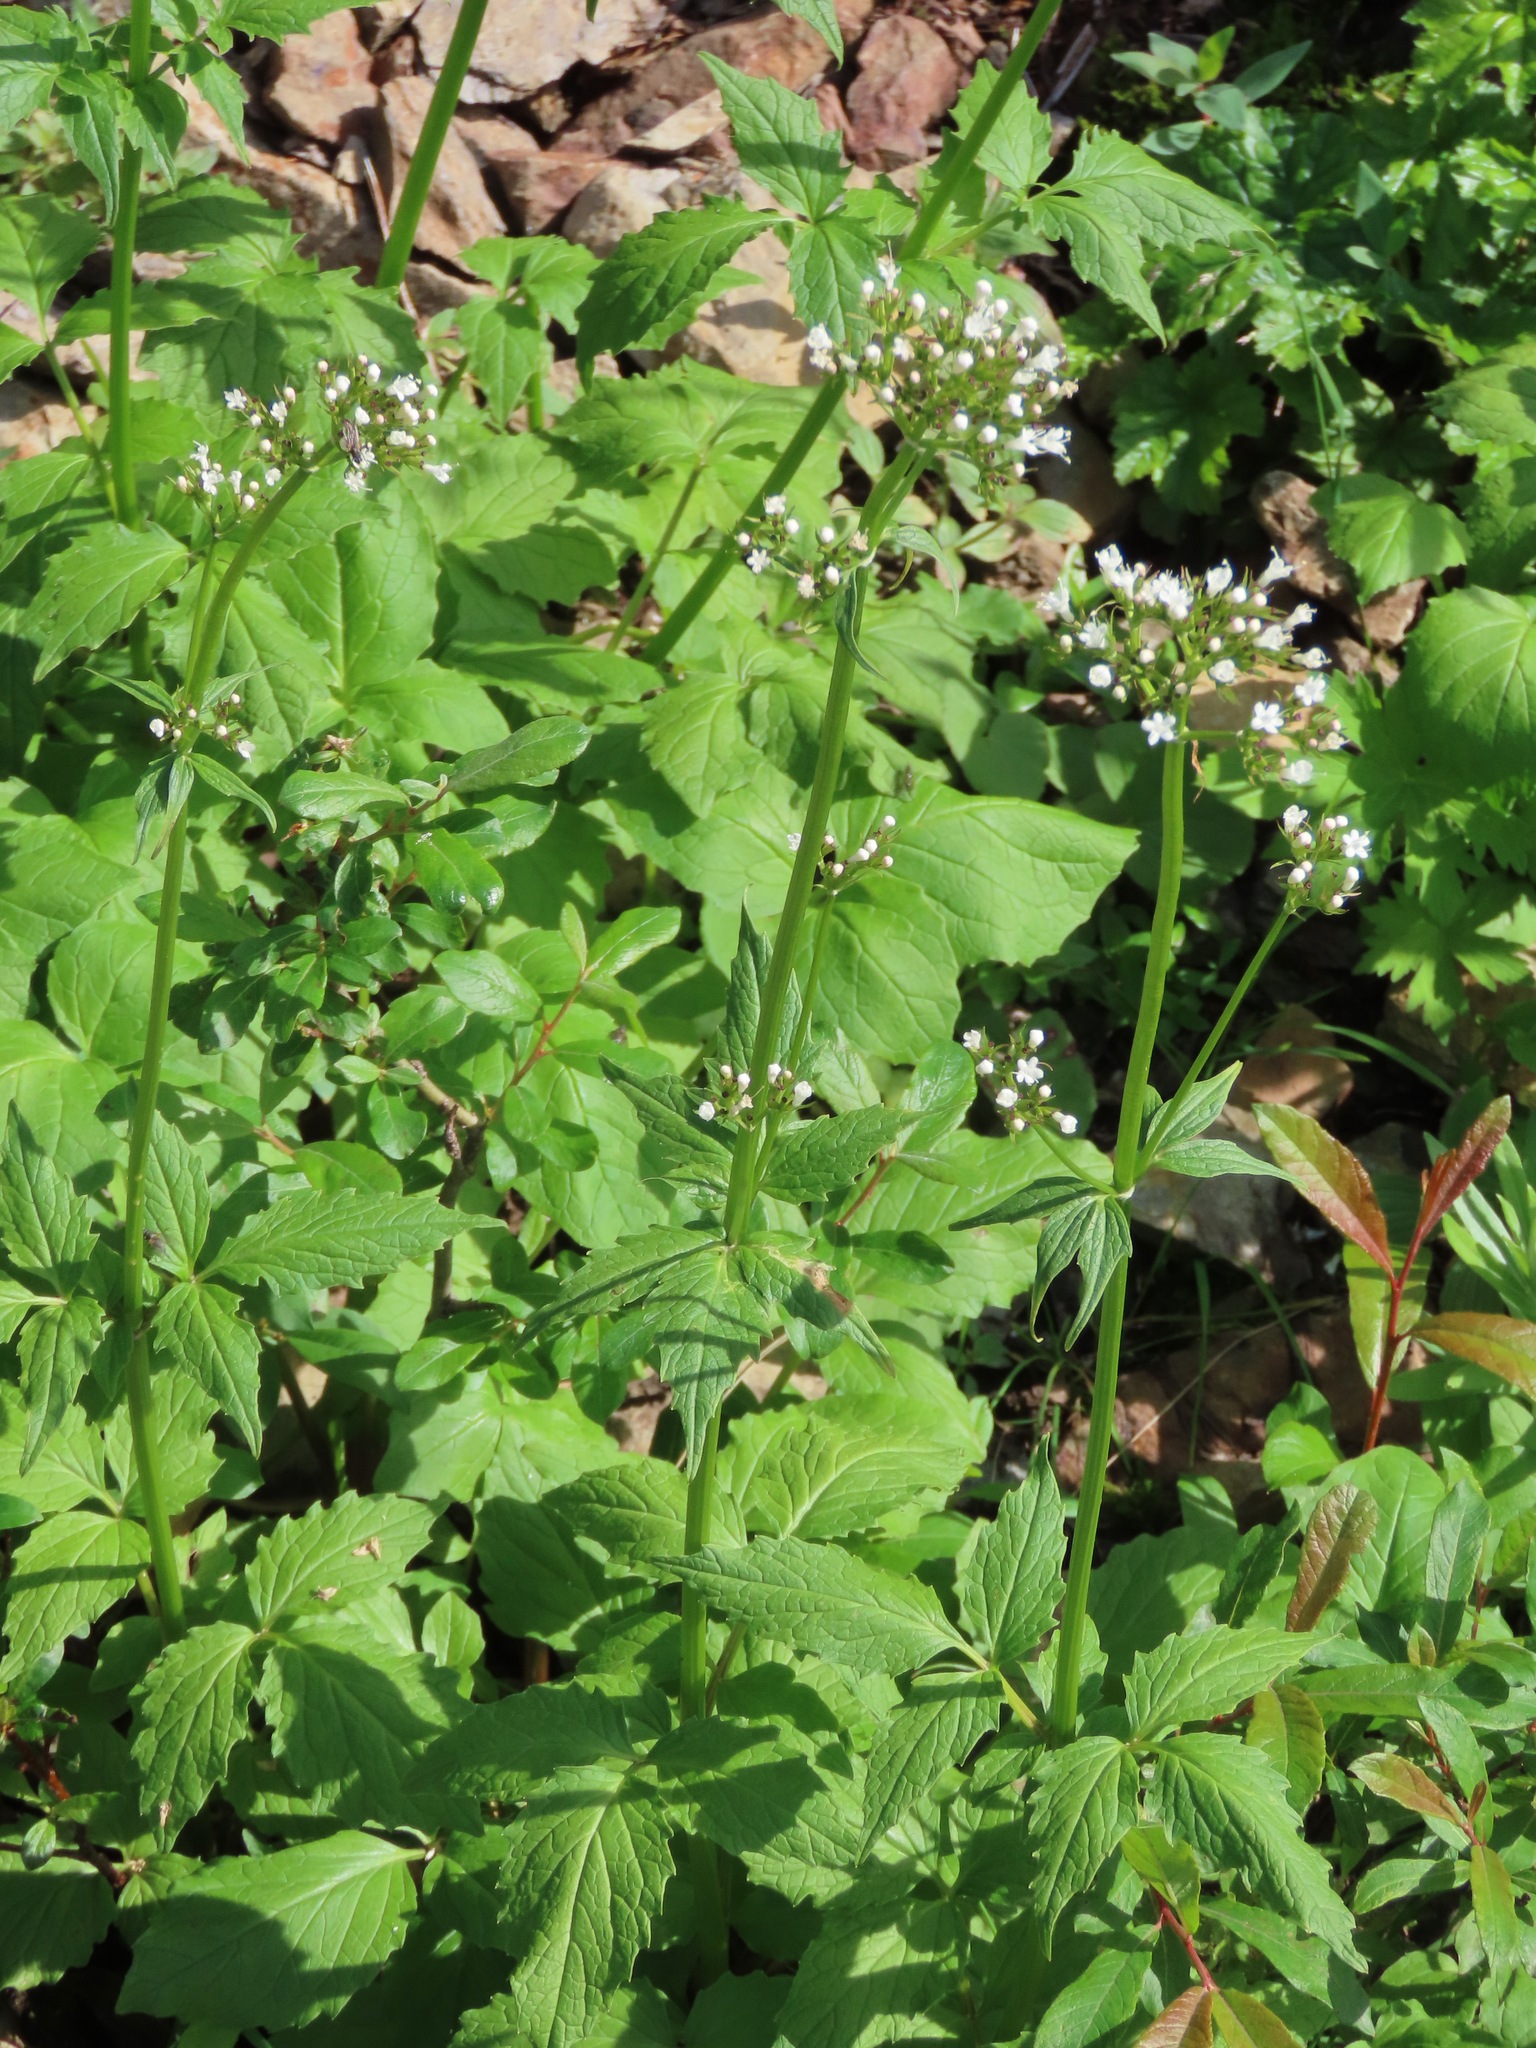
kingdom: Plantae
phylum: Tracheophyta
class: Magnoliopsida
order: Dipsacales
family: Caprifoliaceae
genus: Valeriana
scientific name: Valeriana sitchensis
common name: Pacific valerian
